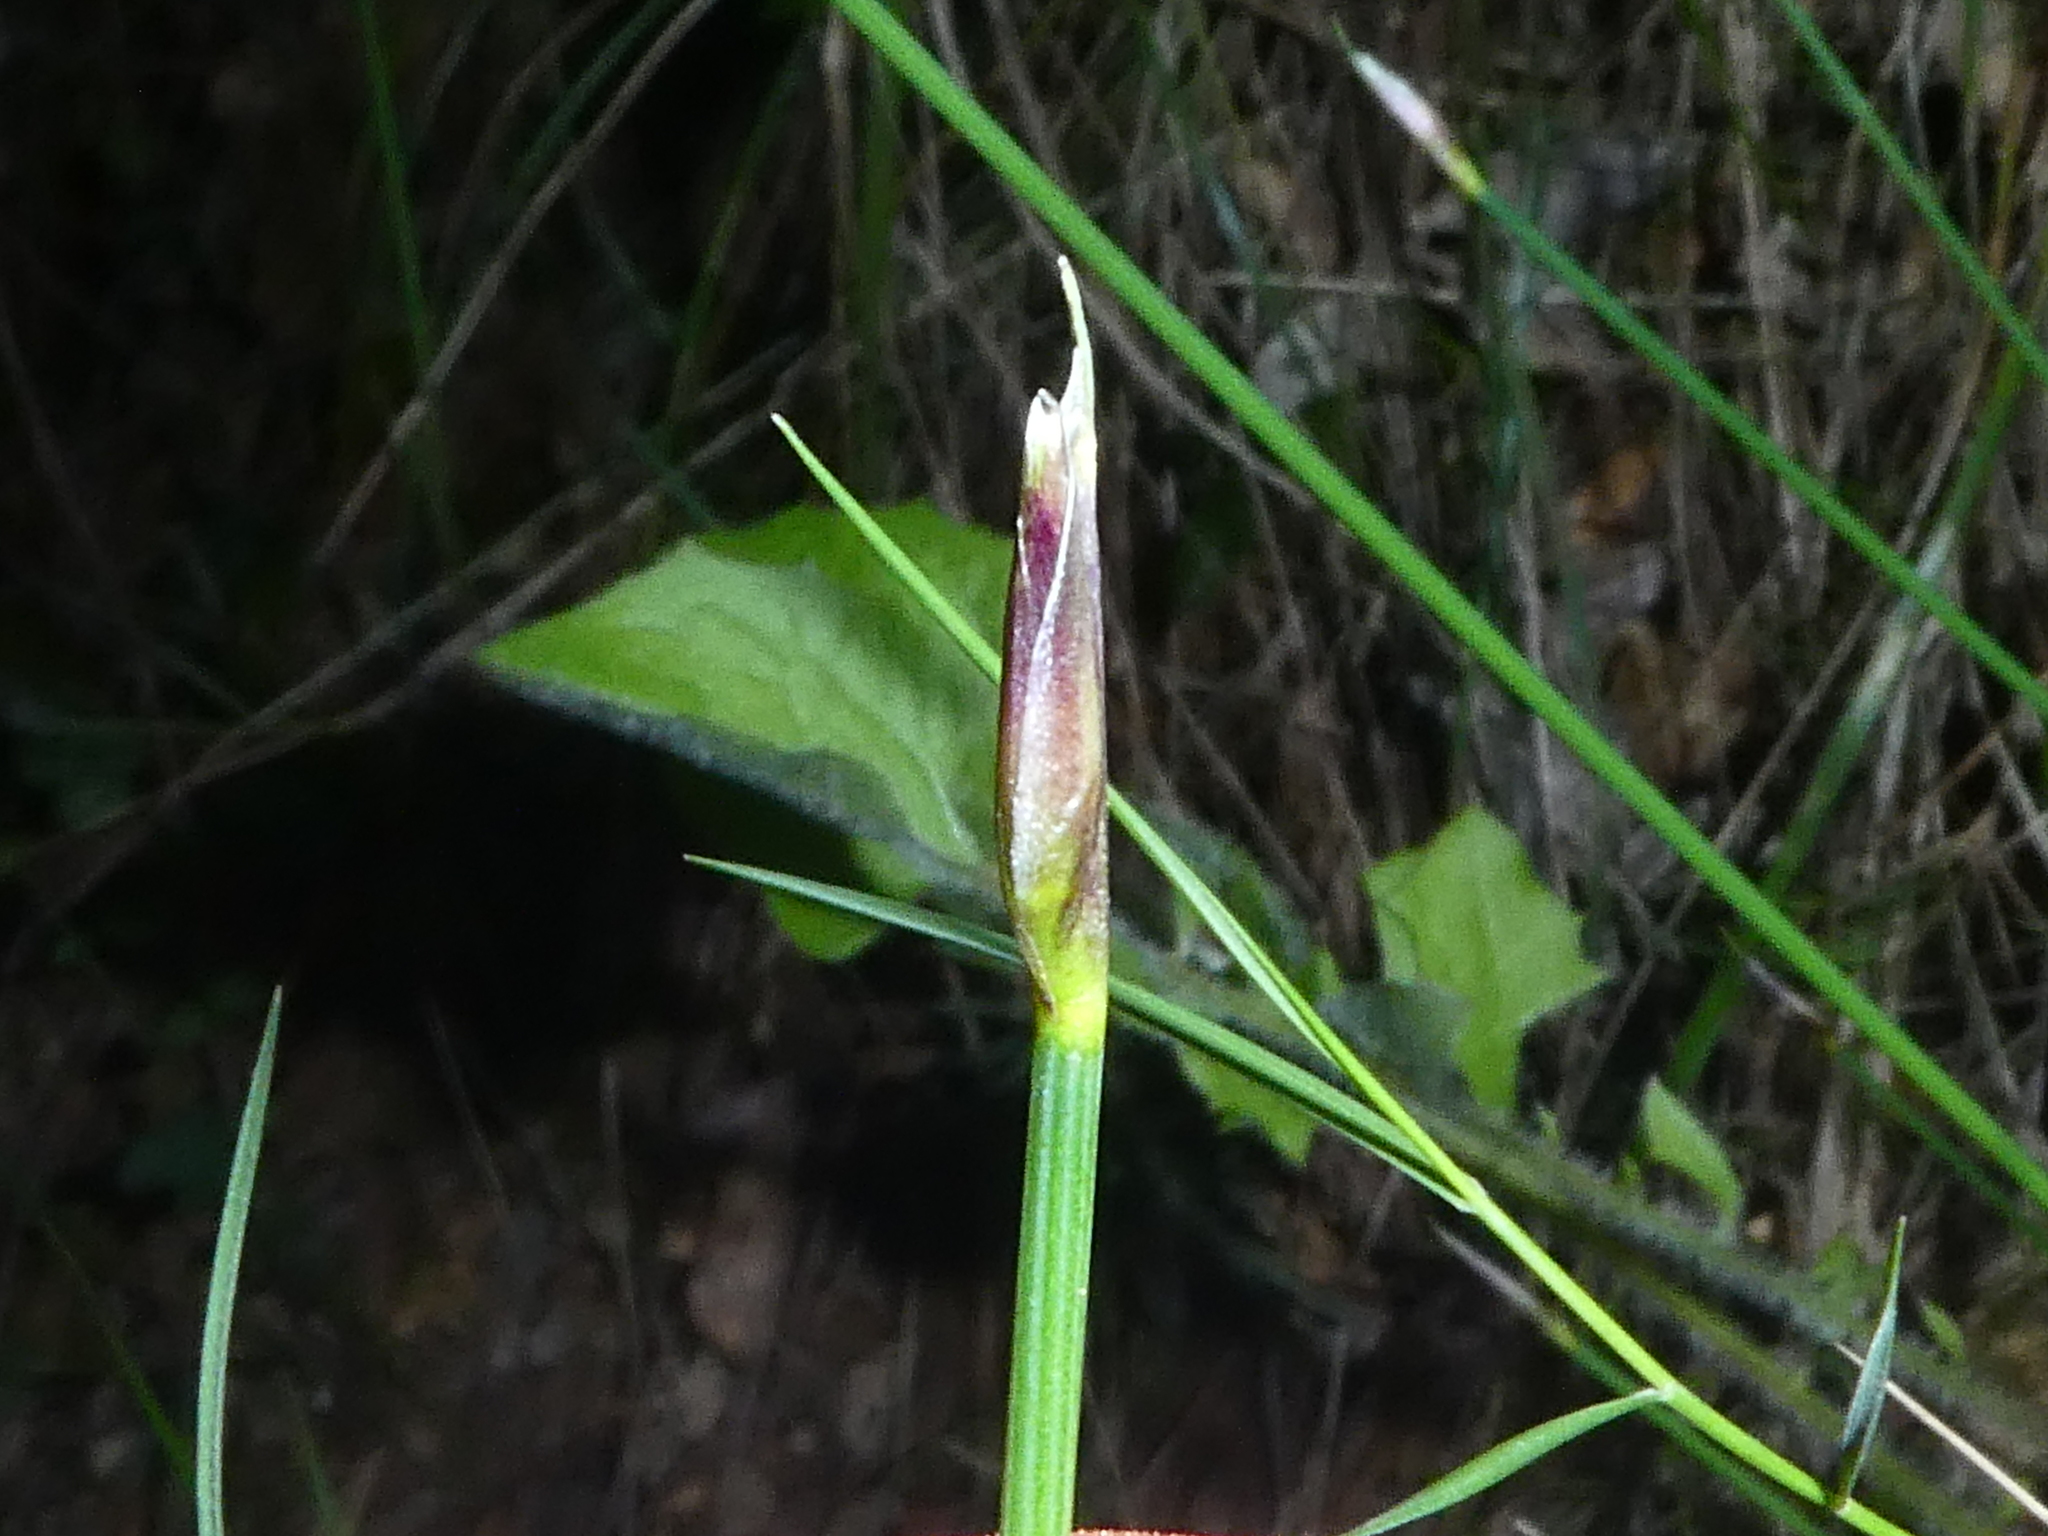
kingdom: Plantae
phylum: Tracheophyta
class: Liliopsida
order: Asparagales
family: Asparagaceae
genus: Aphyllanthes
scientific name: Aphyllanthes monspeliensis
